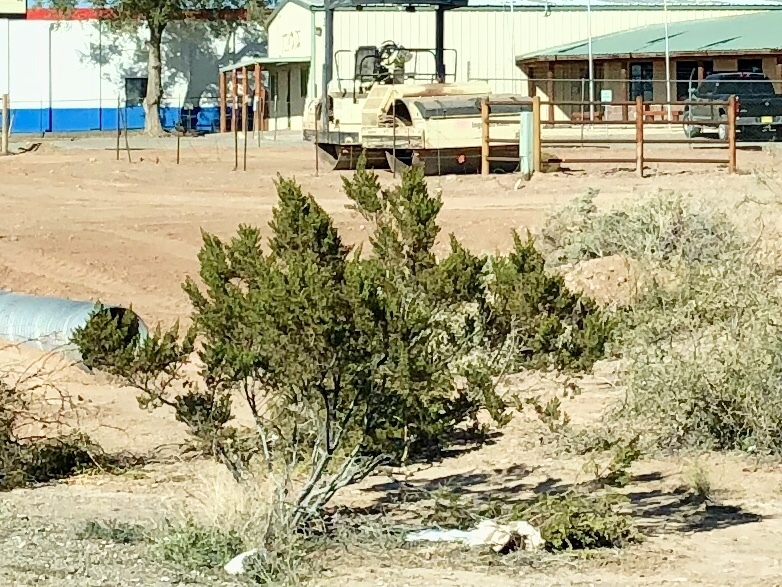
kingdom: Plantae
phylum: Tracheophyta
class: Magnoliopsida
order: Zygophyllales
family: Zygophyllaceae
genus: Larrea
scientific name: Larrea tridentata
